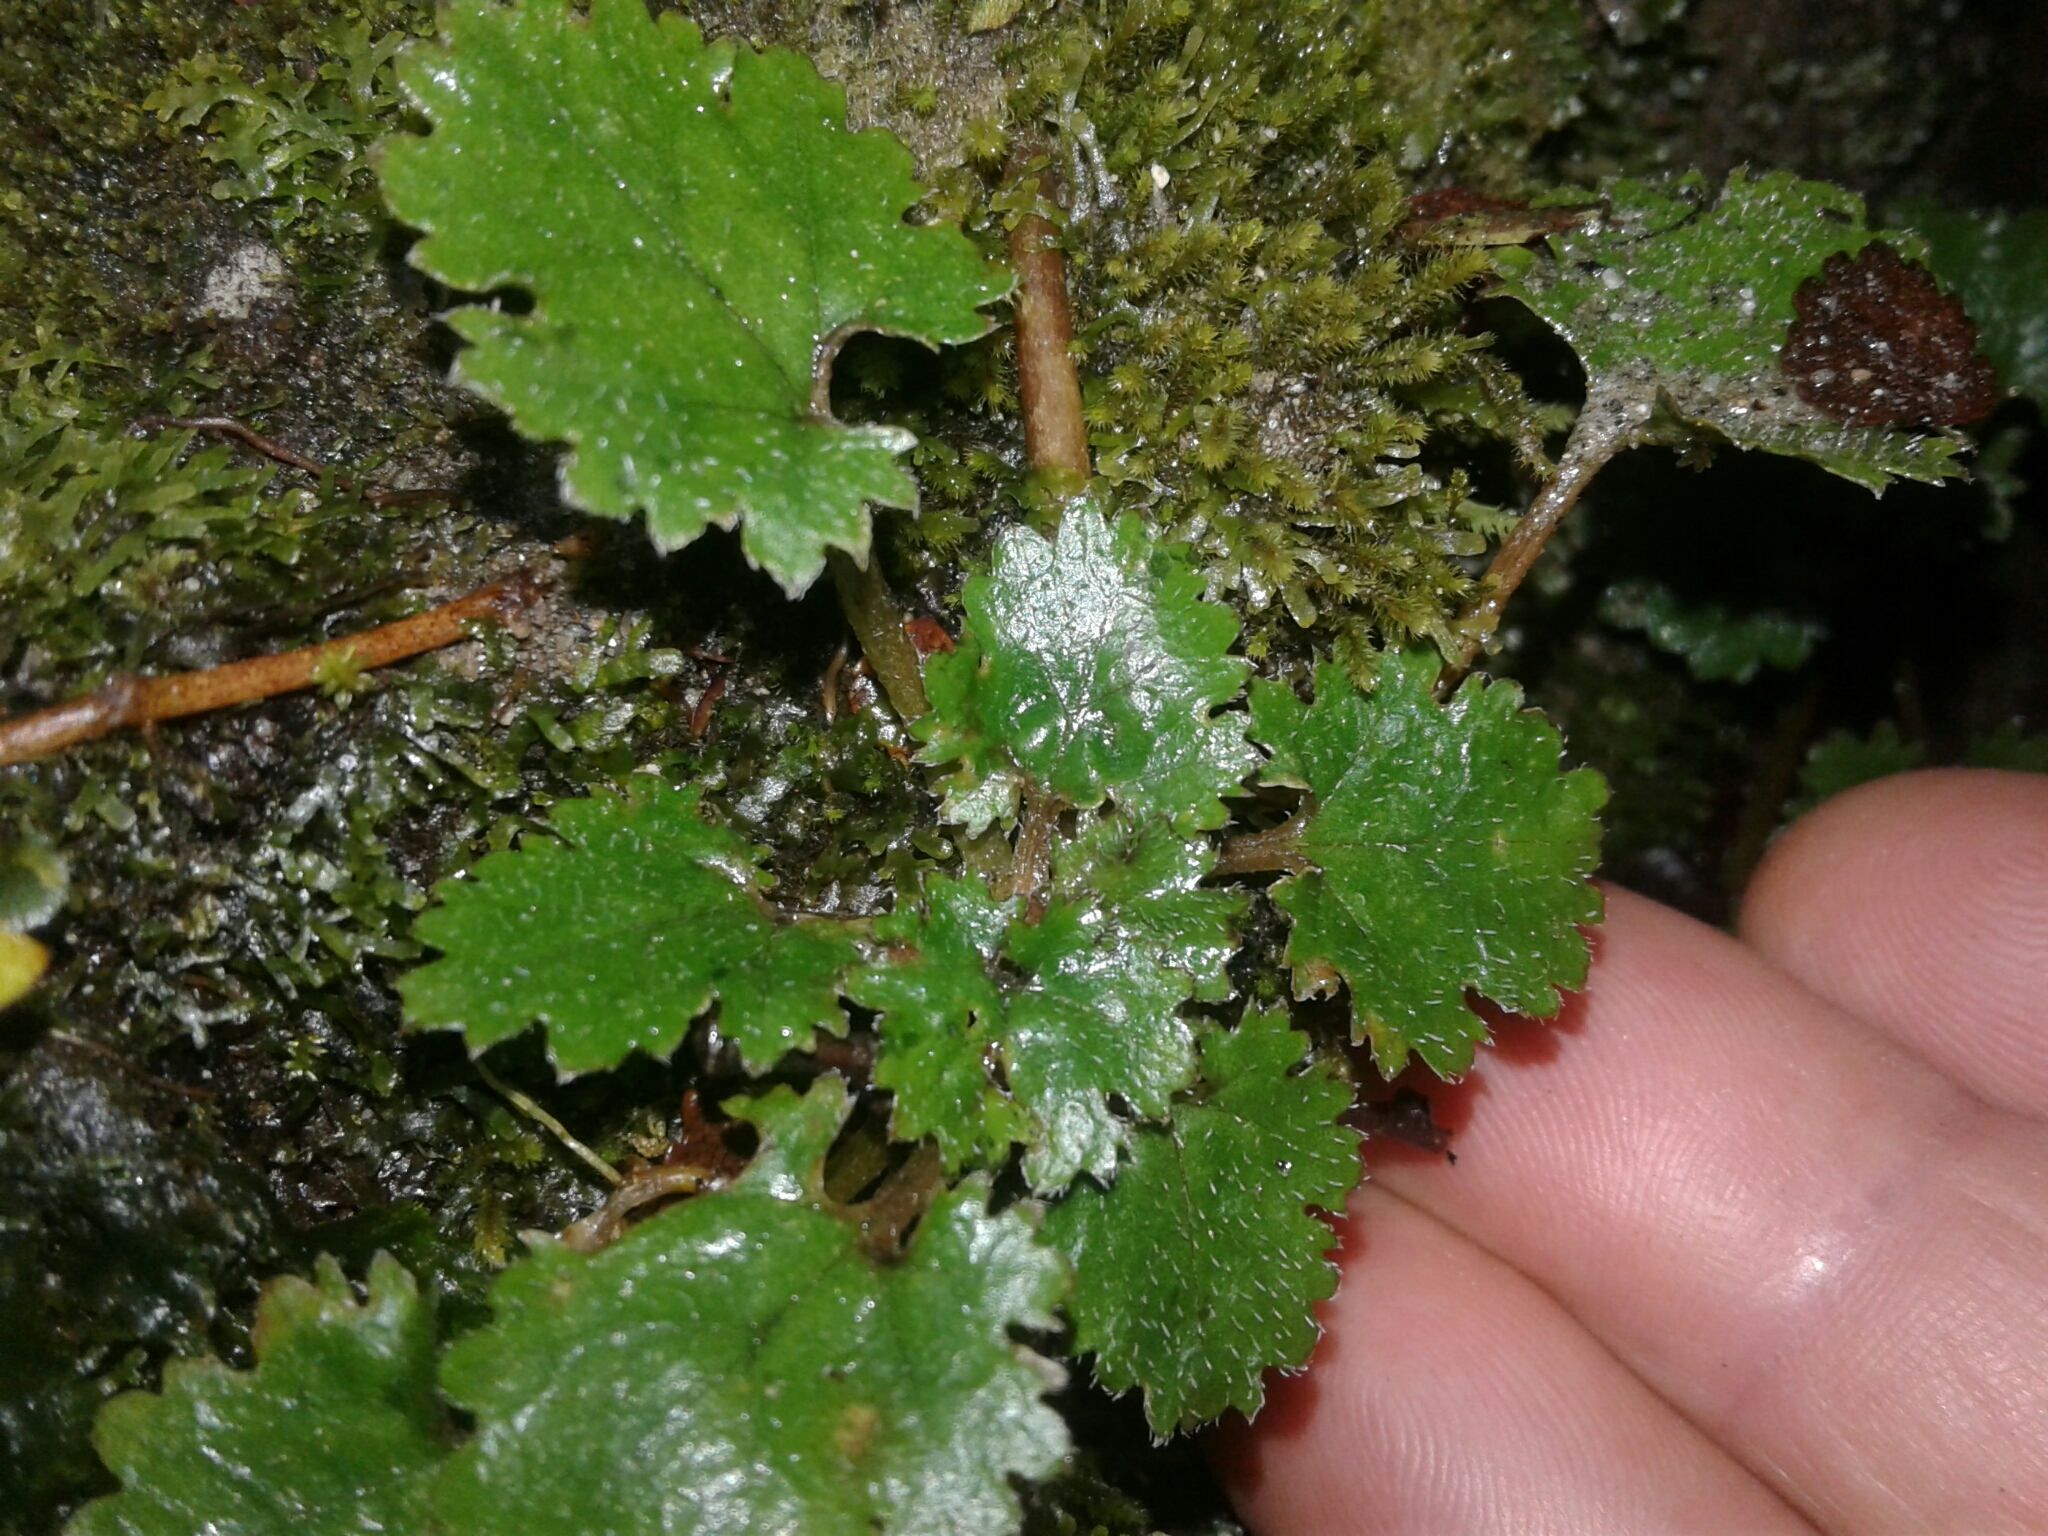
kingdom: Plantae
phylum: Tracheophyta
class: Magnoliopsida
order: Gunnerales
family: Gunneraceae
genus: Gunnera
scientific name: Gunnera monoica
